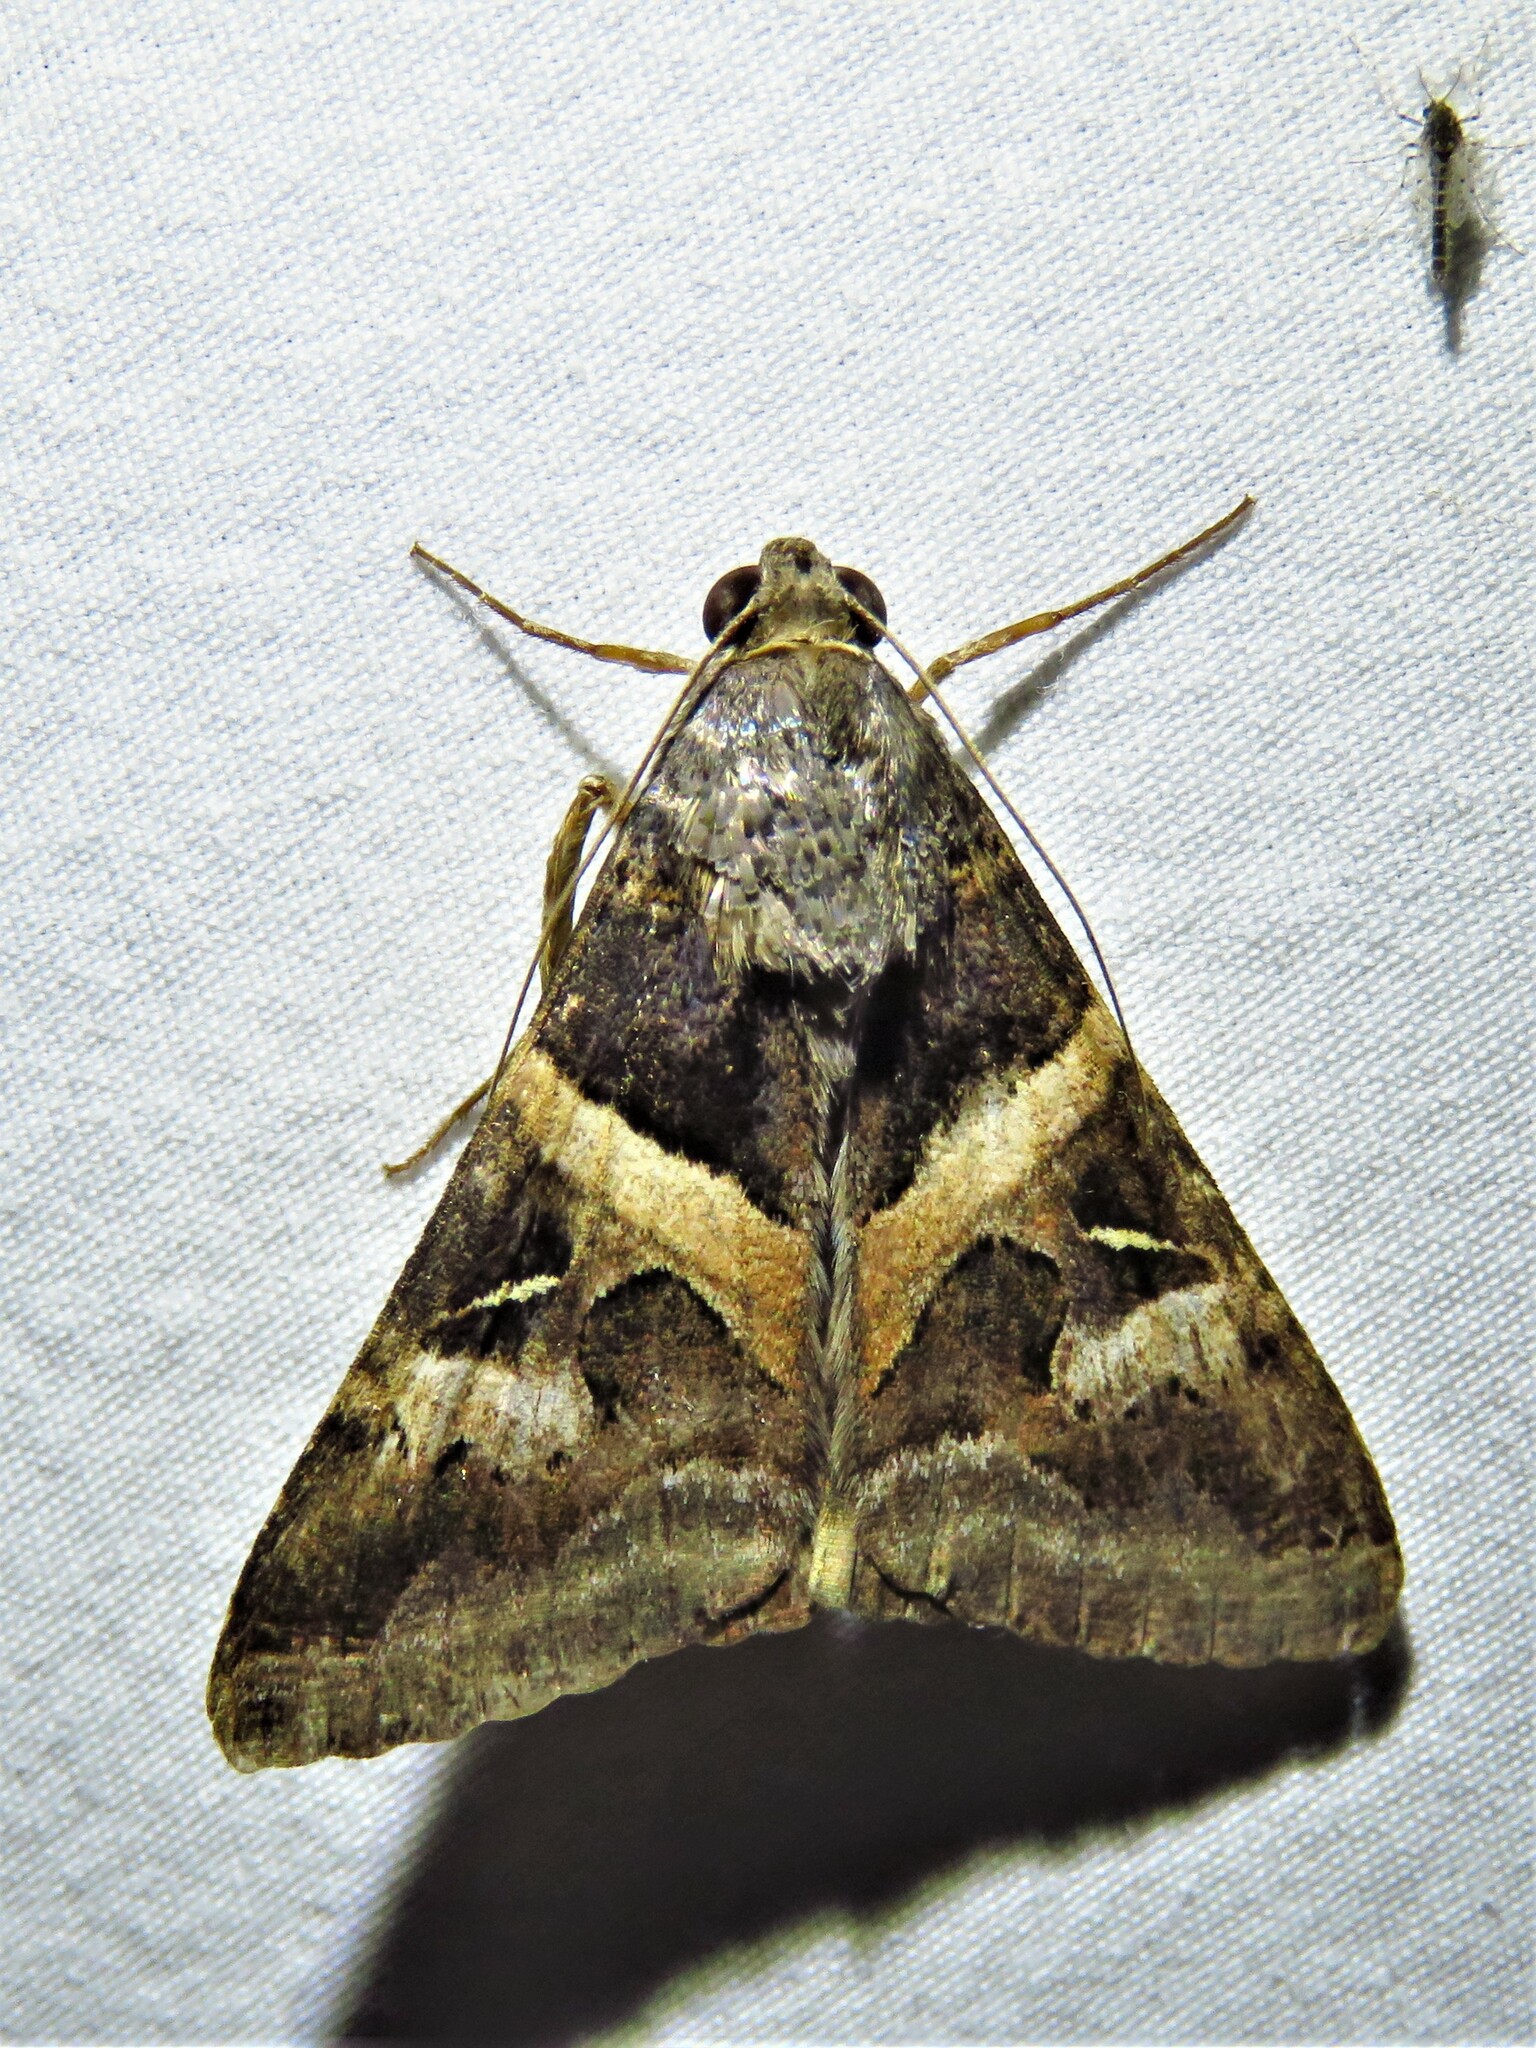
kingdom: Animalia
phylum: Arthropoda
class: Insecta
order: Lepidoptera
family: Erebidae
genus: Melipotis
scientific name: Melipotis indomita
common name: Moth
